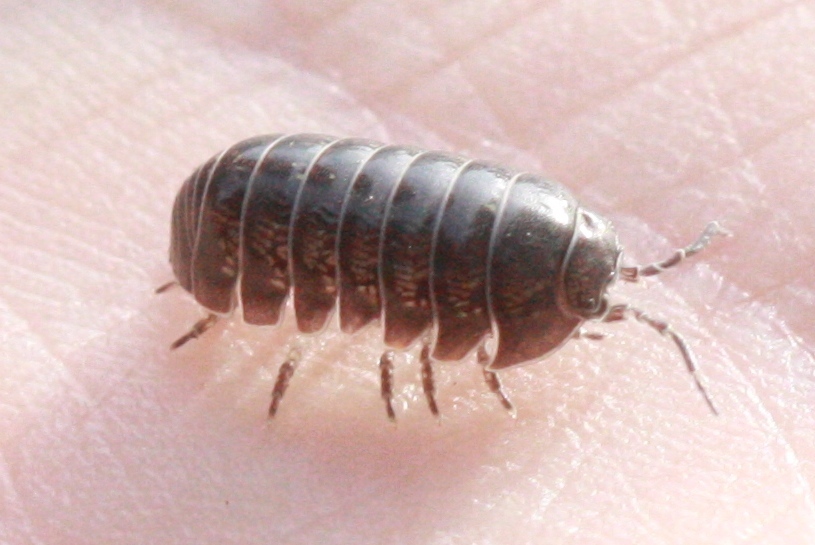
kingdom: Animalia
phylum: Arthropoda
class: Malacostraca
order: Isopoda
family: Armadillidiidae
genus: Armadillidium
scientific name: Armadillidium vulgare
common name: Common pill woodlouse
